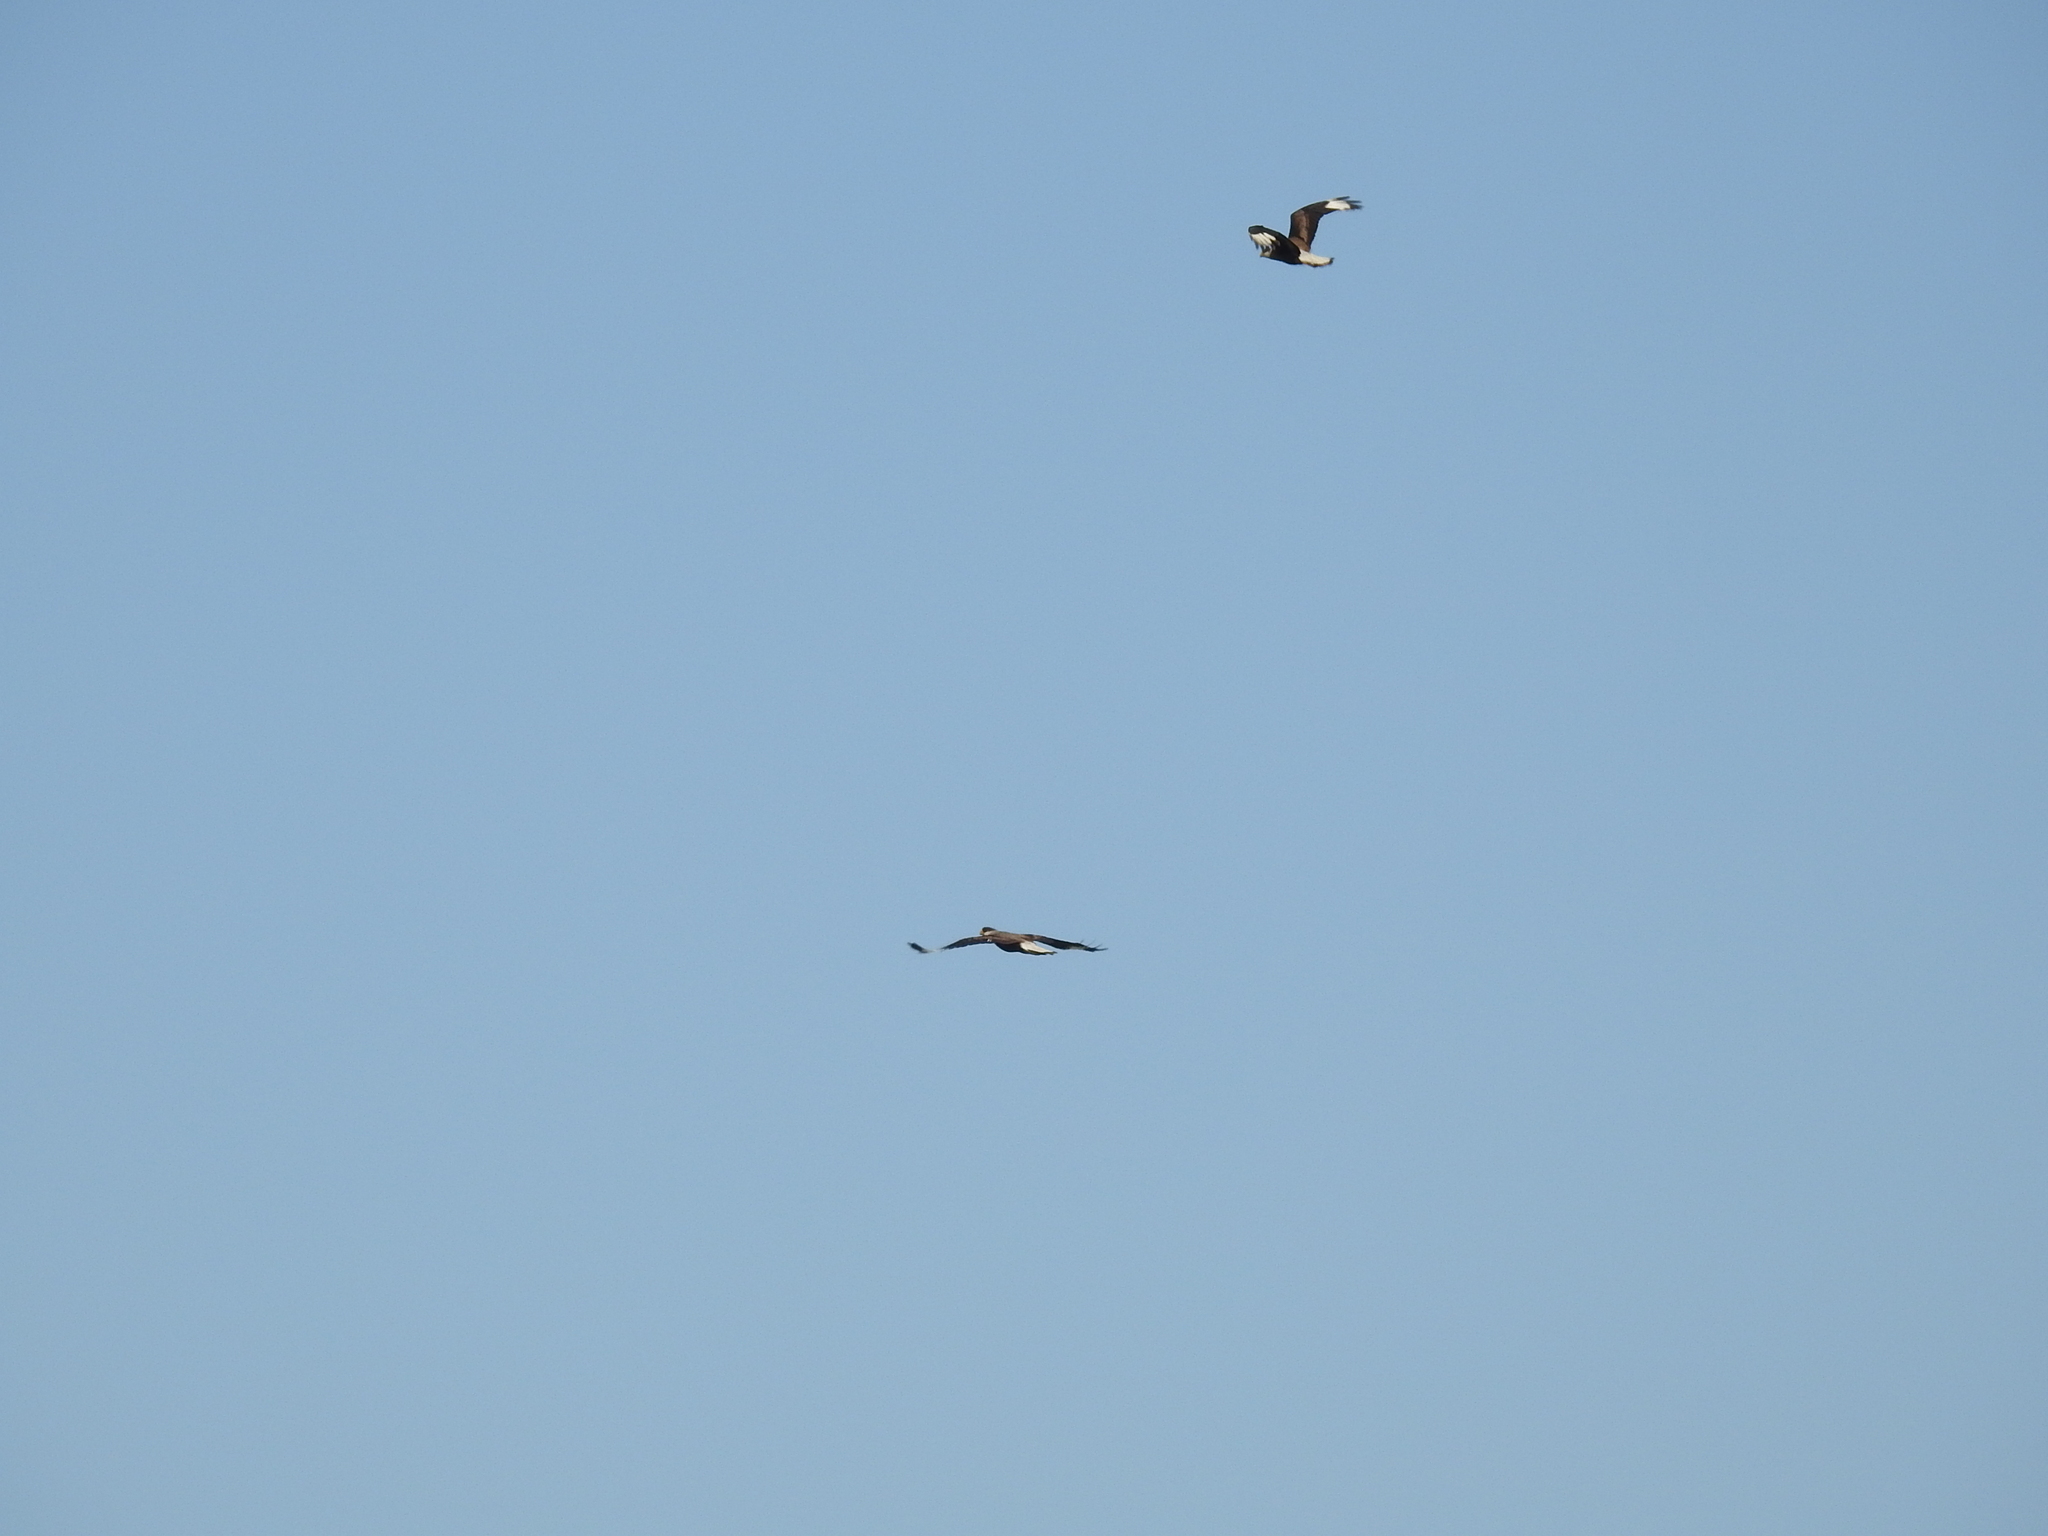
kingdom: Animalia
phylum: Chordata
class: Aves
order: Falconiformes
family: Falconidae
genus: Caracara
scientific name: Caracara plancus
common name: Southern caracara
